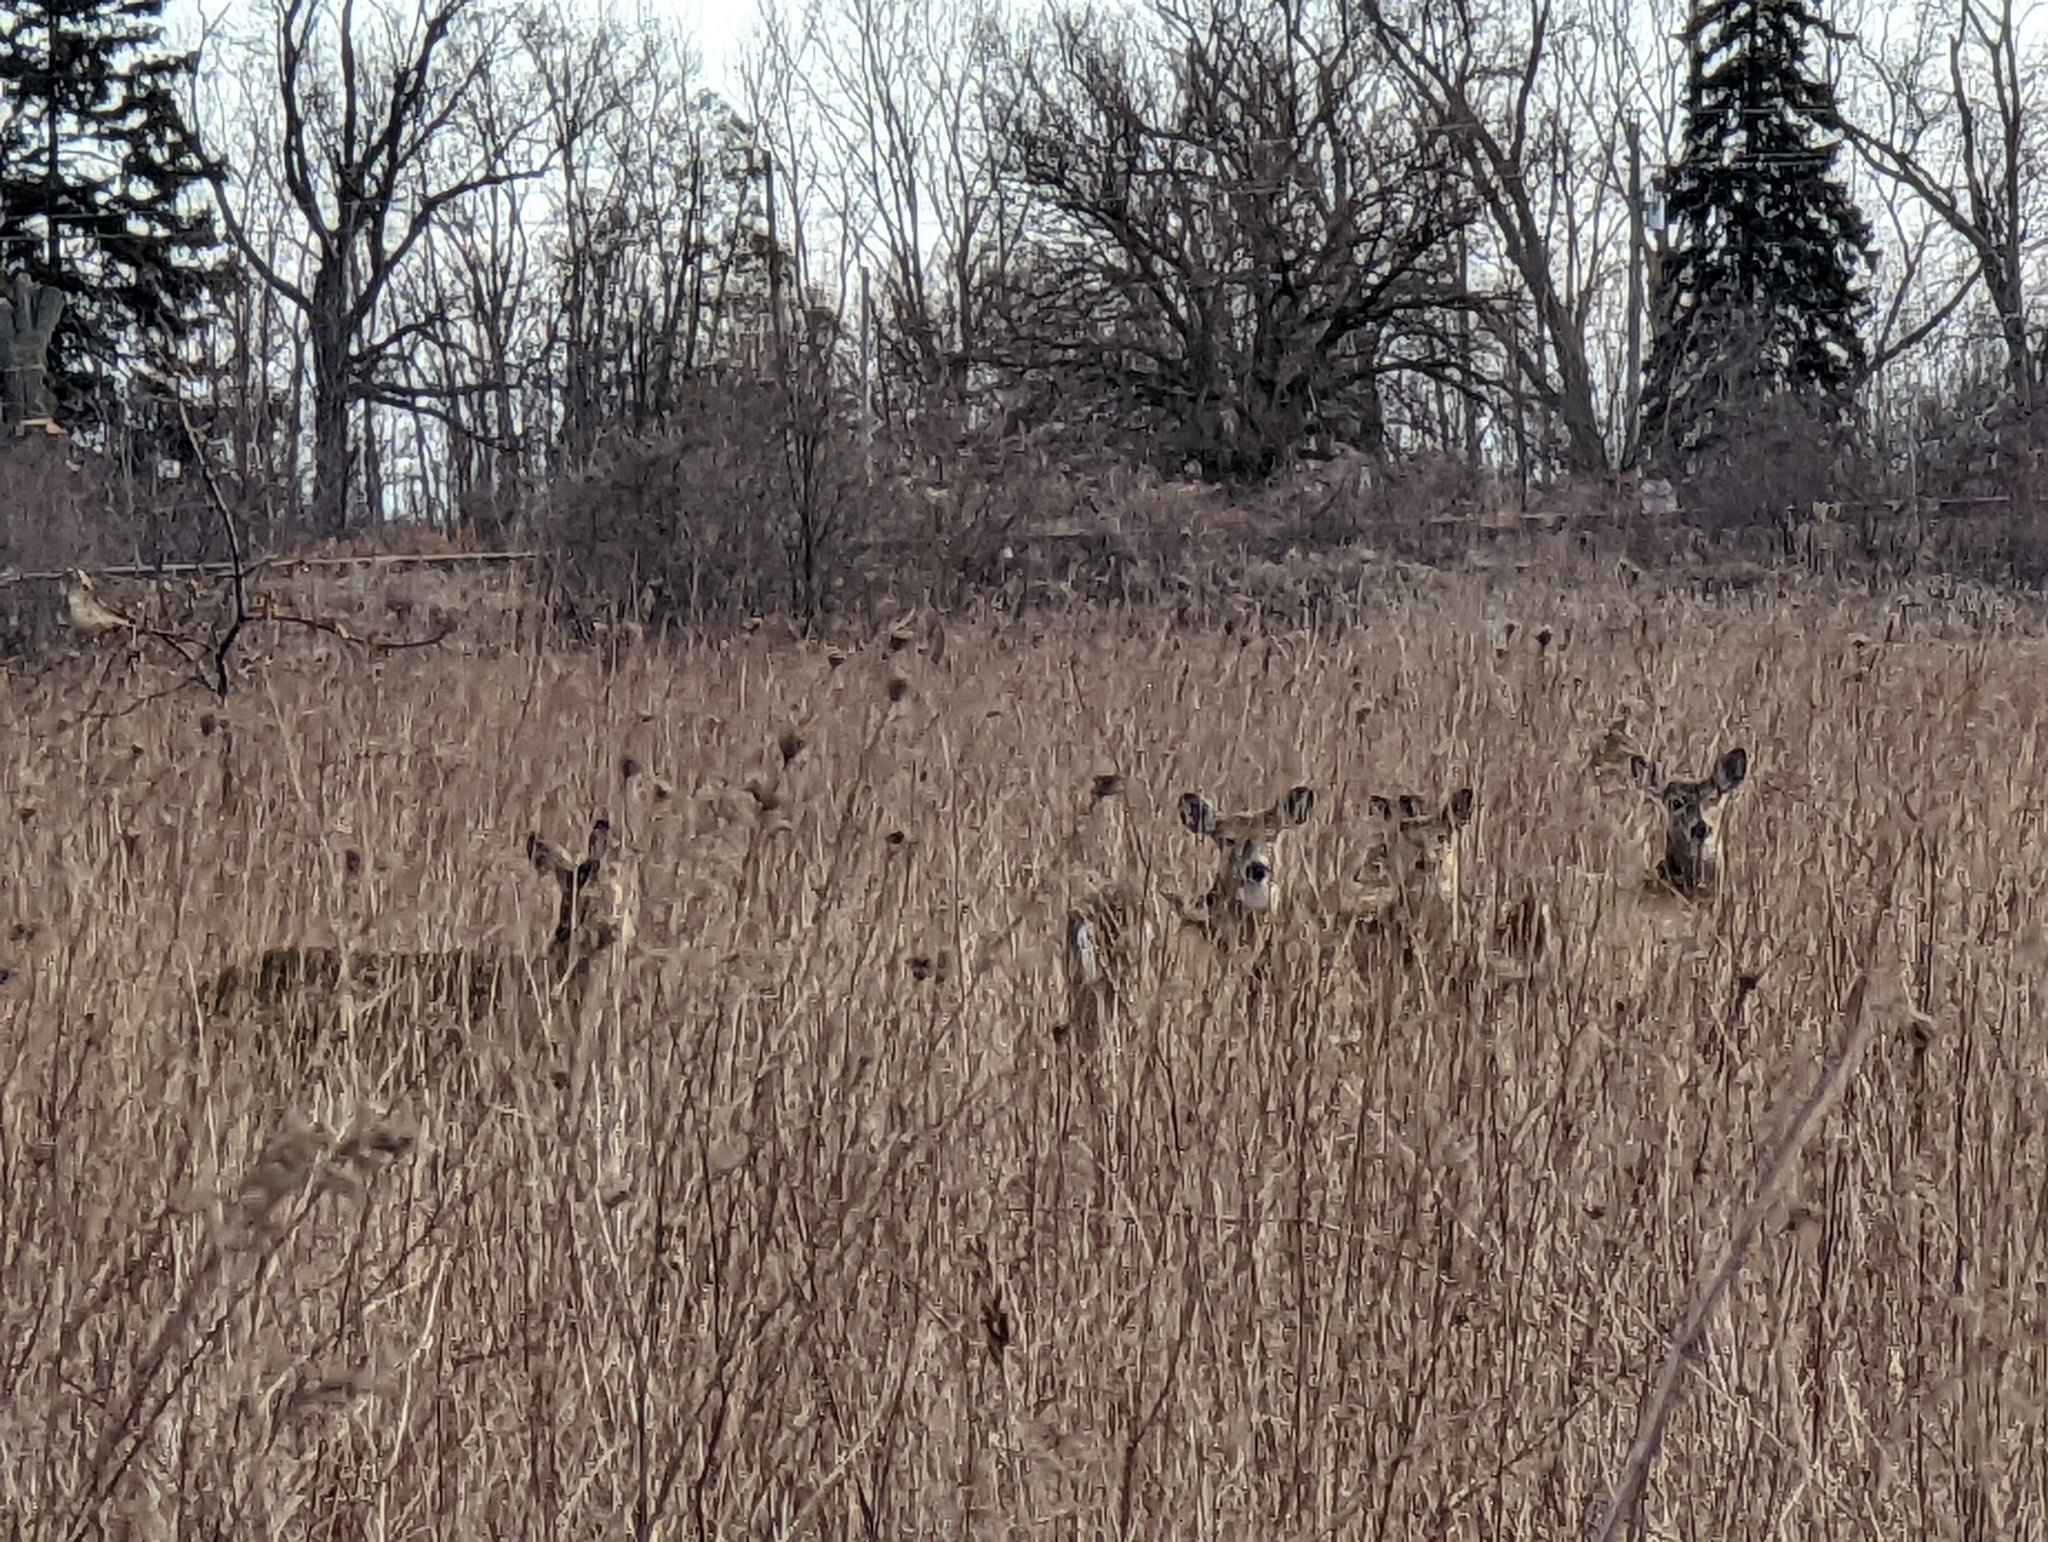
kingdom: Animalia
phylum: Chordata
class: Mammalia
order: Artiodactyla
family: Cervidae
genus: Odocoileus
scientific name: Odocoileus virginianus
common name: White-tailed deer
